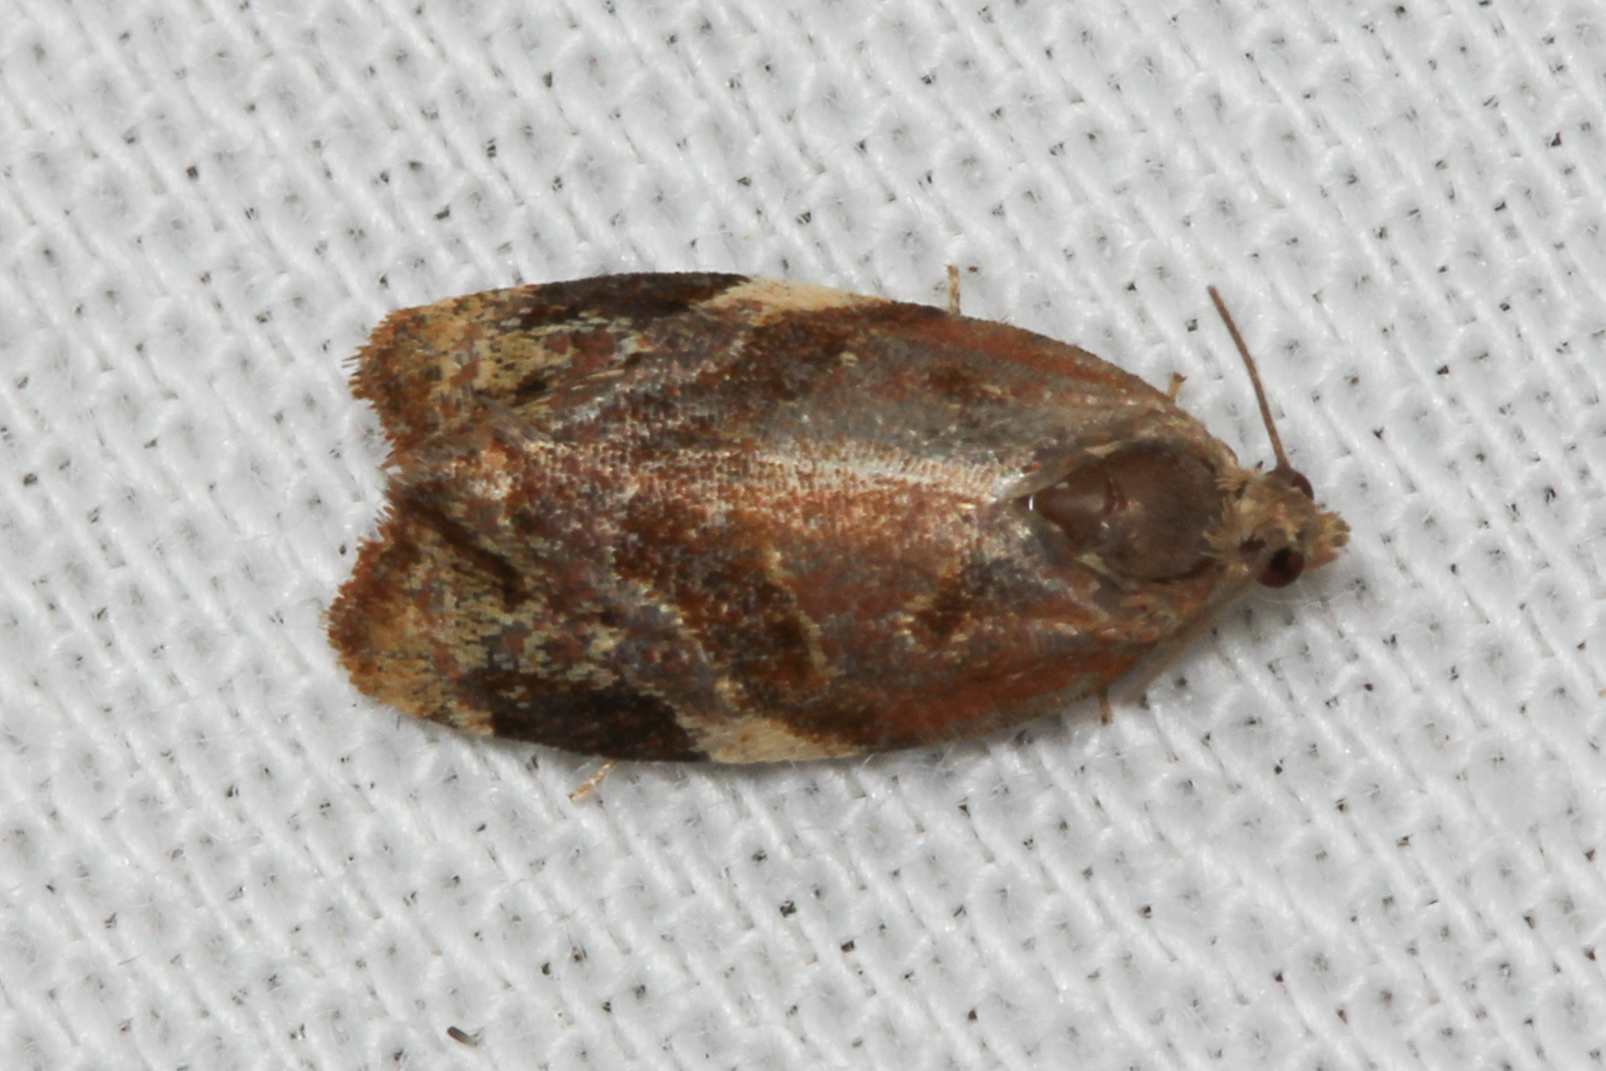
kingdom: Animalia
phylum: Arthropoda
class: Insecta
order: Lepidoptera
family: Tortricidae
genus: Ditula
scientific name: Ditula angustiorana
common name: Red-barred tortrix
